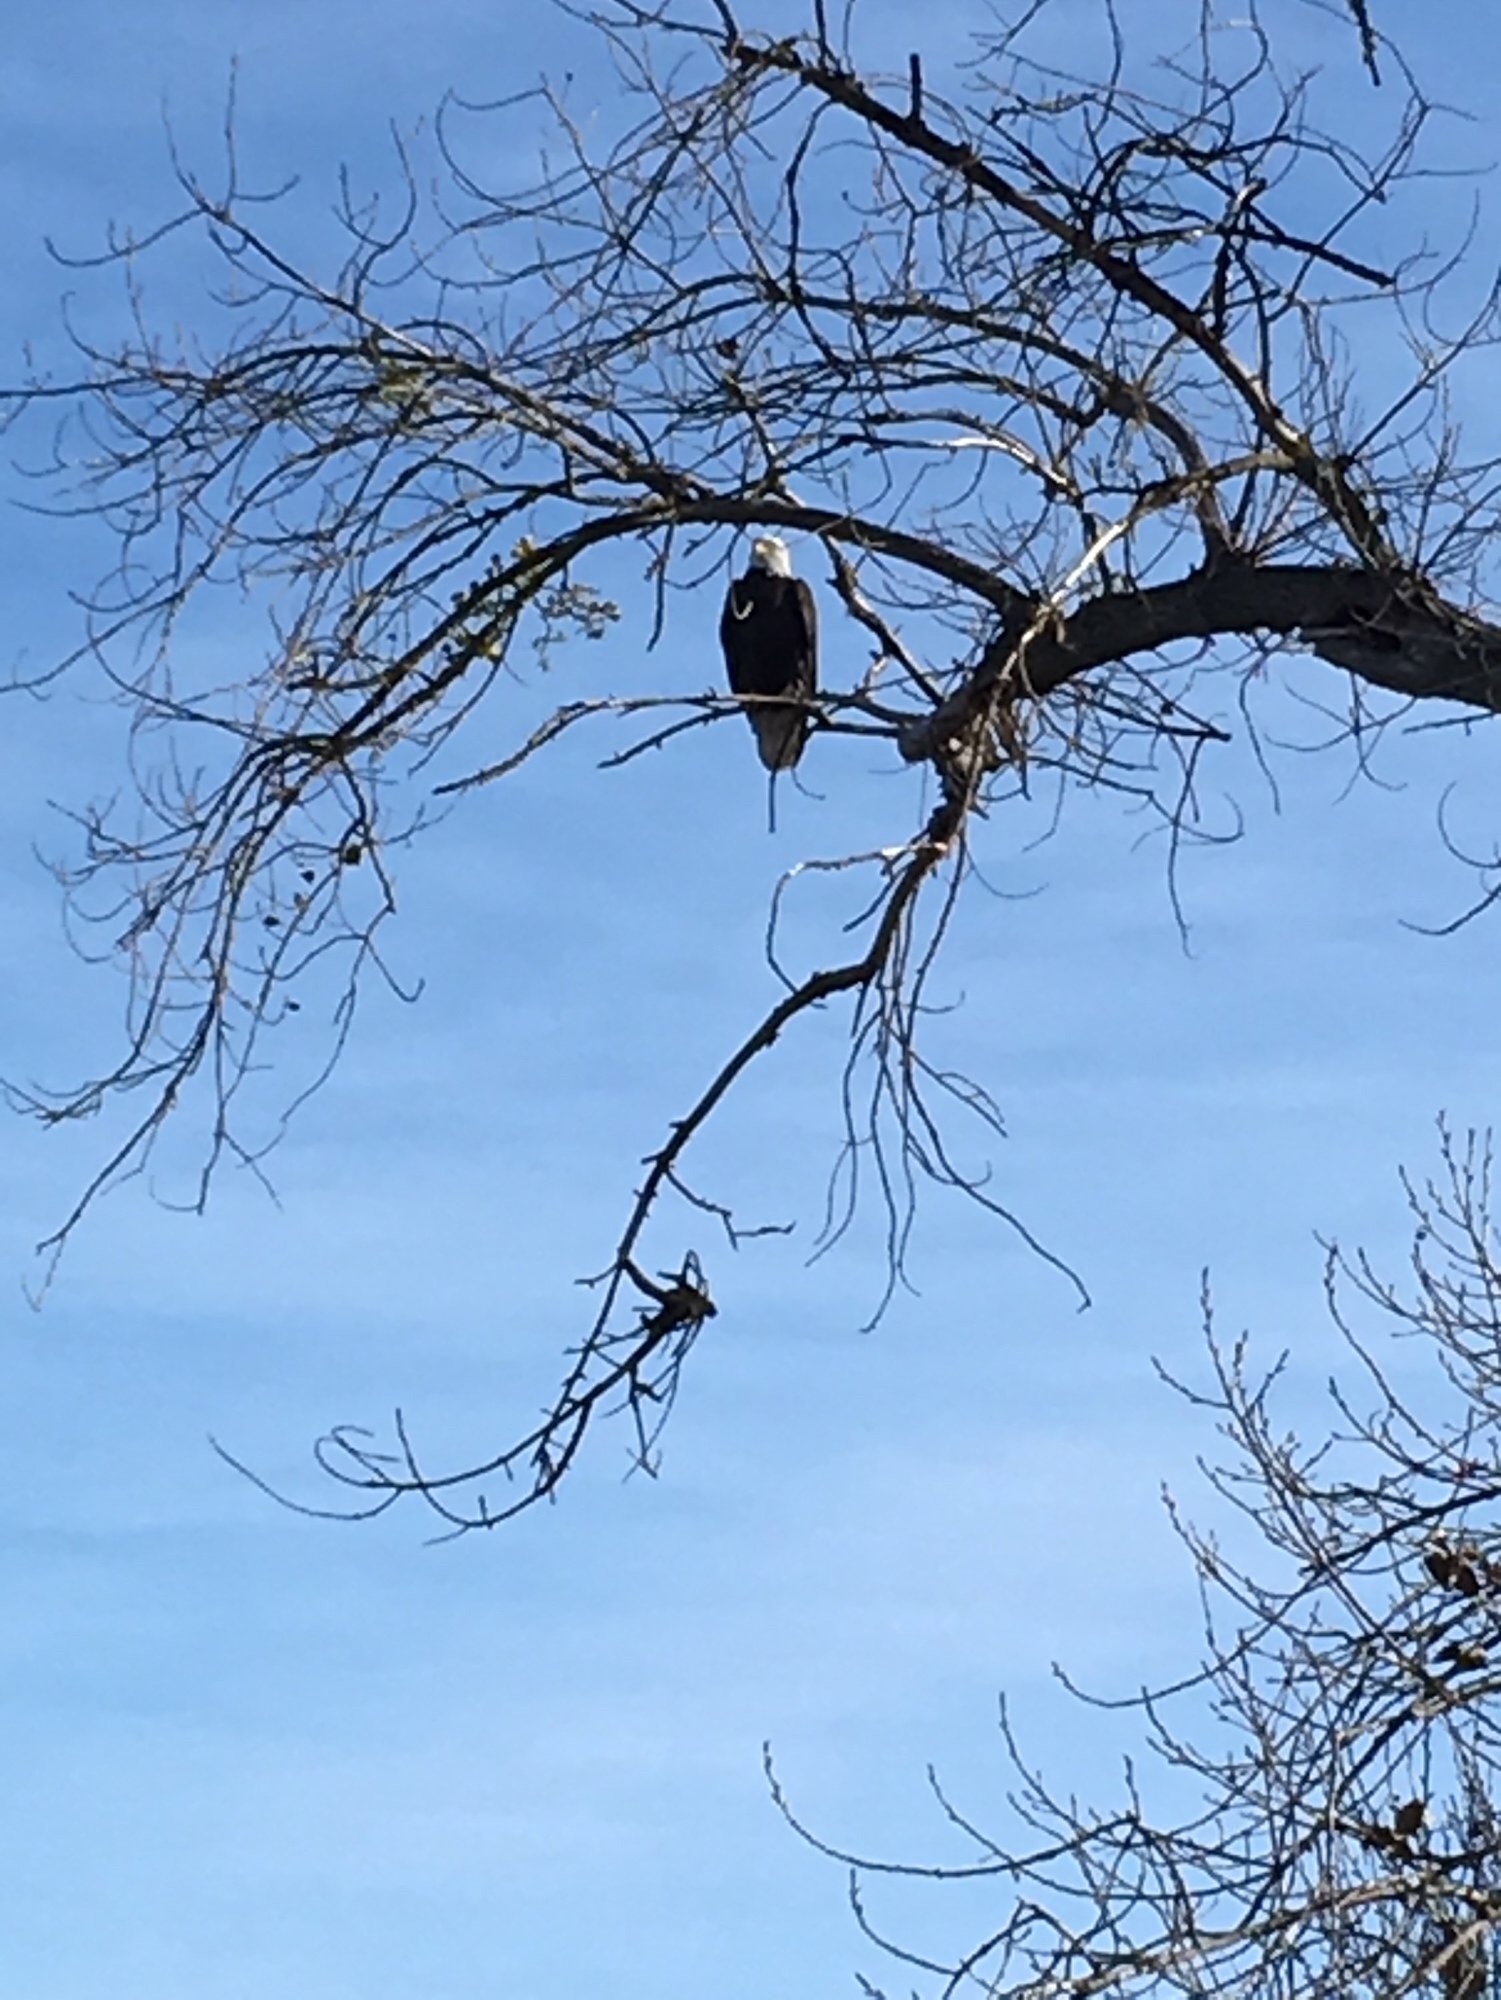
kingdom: Animalia
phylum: Chordata
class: Aves
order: Accipitriformes
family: Accipitridae
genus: Haliaeetus
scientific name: Haliaeetus leucocephalus
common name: Bald eagle
